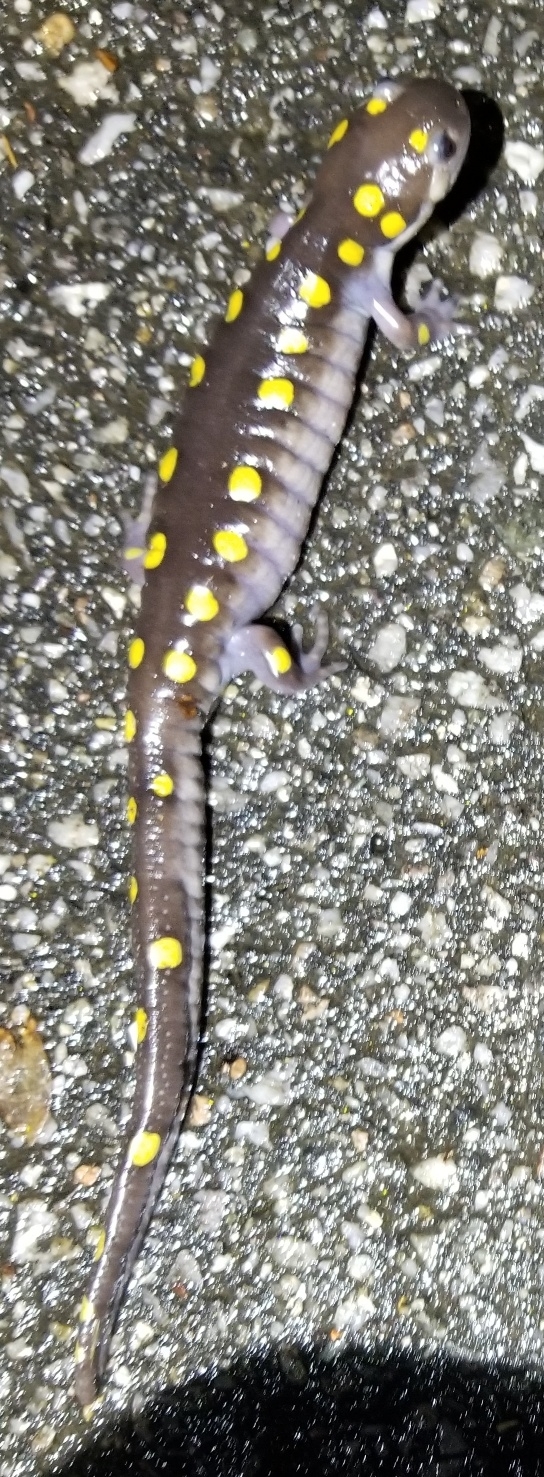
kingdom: Animalia
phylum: Chordata
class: Amphibia
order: Caudata
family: Ambystomatidae
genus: Ambystoma
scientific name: Ambystoma maculatum
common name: Spotted salamander
